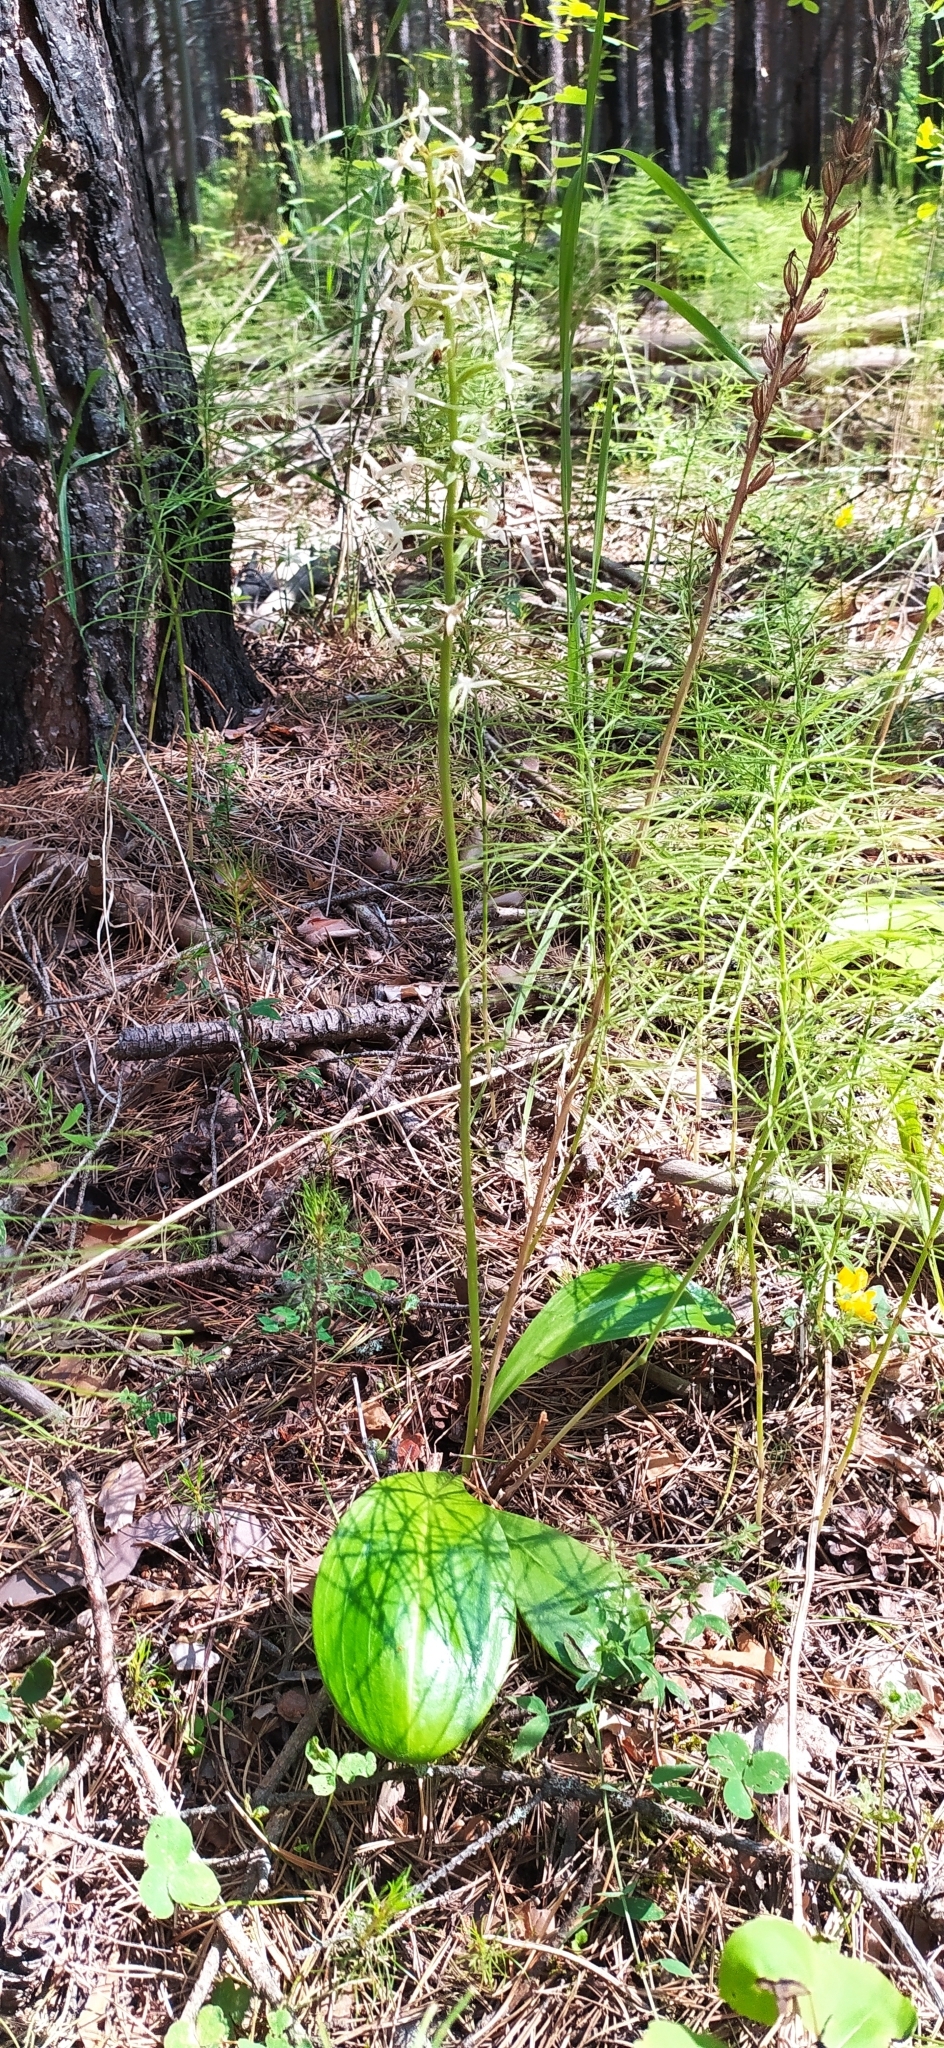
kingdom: Plantae
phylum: Tracheophyta
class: Liliopsida
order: Asparagales
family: Orchidaceae
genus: Platanthera
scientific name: Platanthera bifolia
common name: Lesser butterfly-orchid
